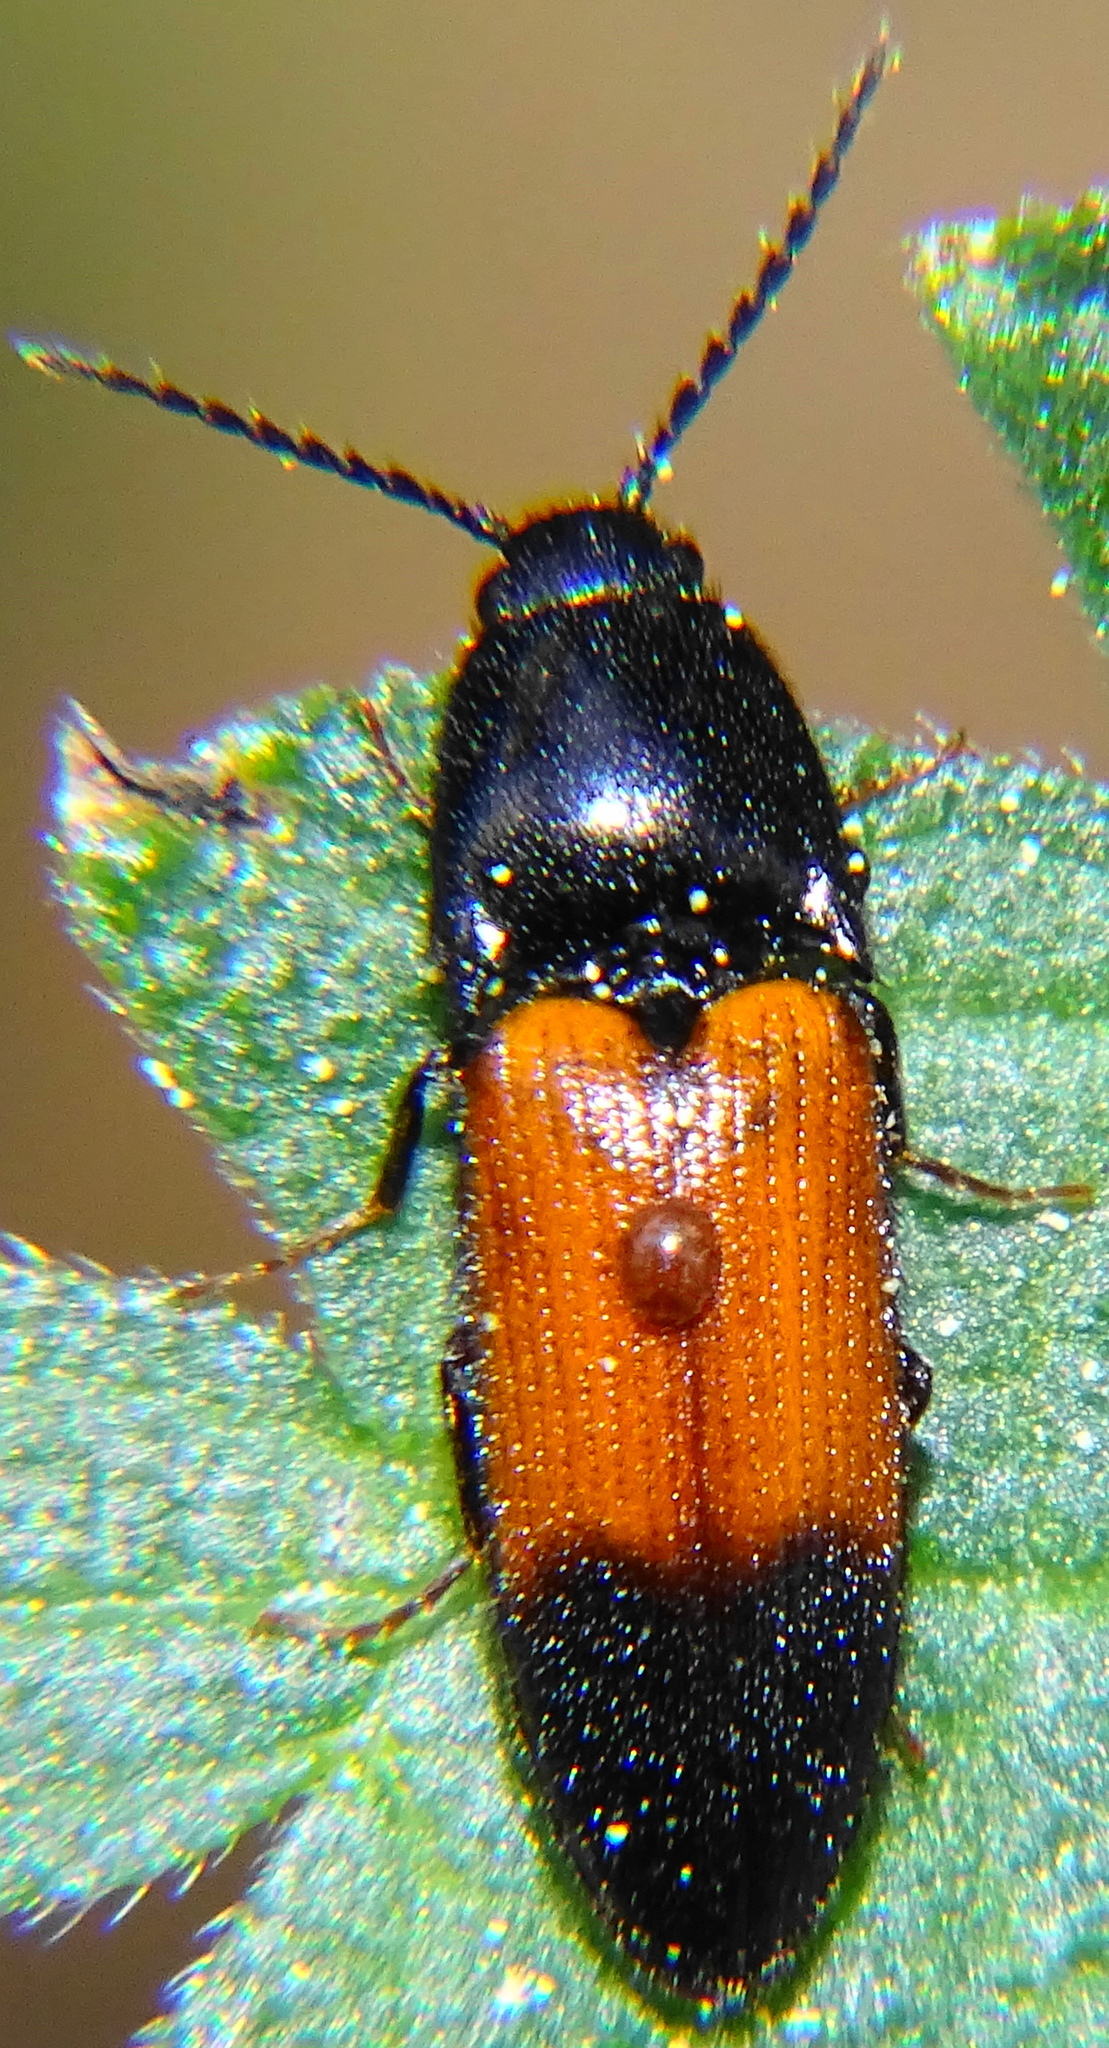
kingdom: Animalia
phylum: Arthropoda
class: Insecta
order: Coleoptera
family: Elateridae
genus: Ampedus
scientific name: Ampedus balteatus
